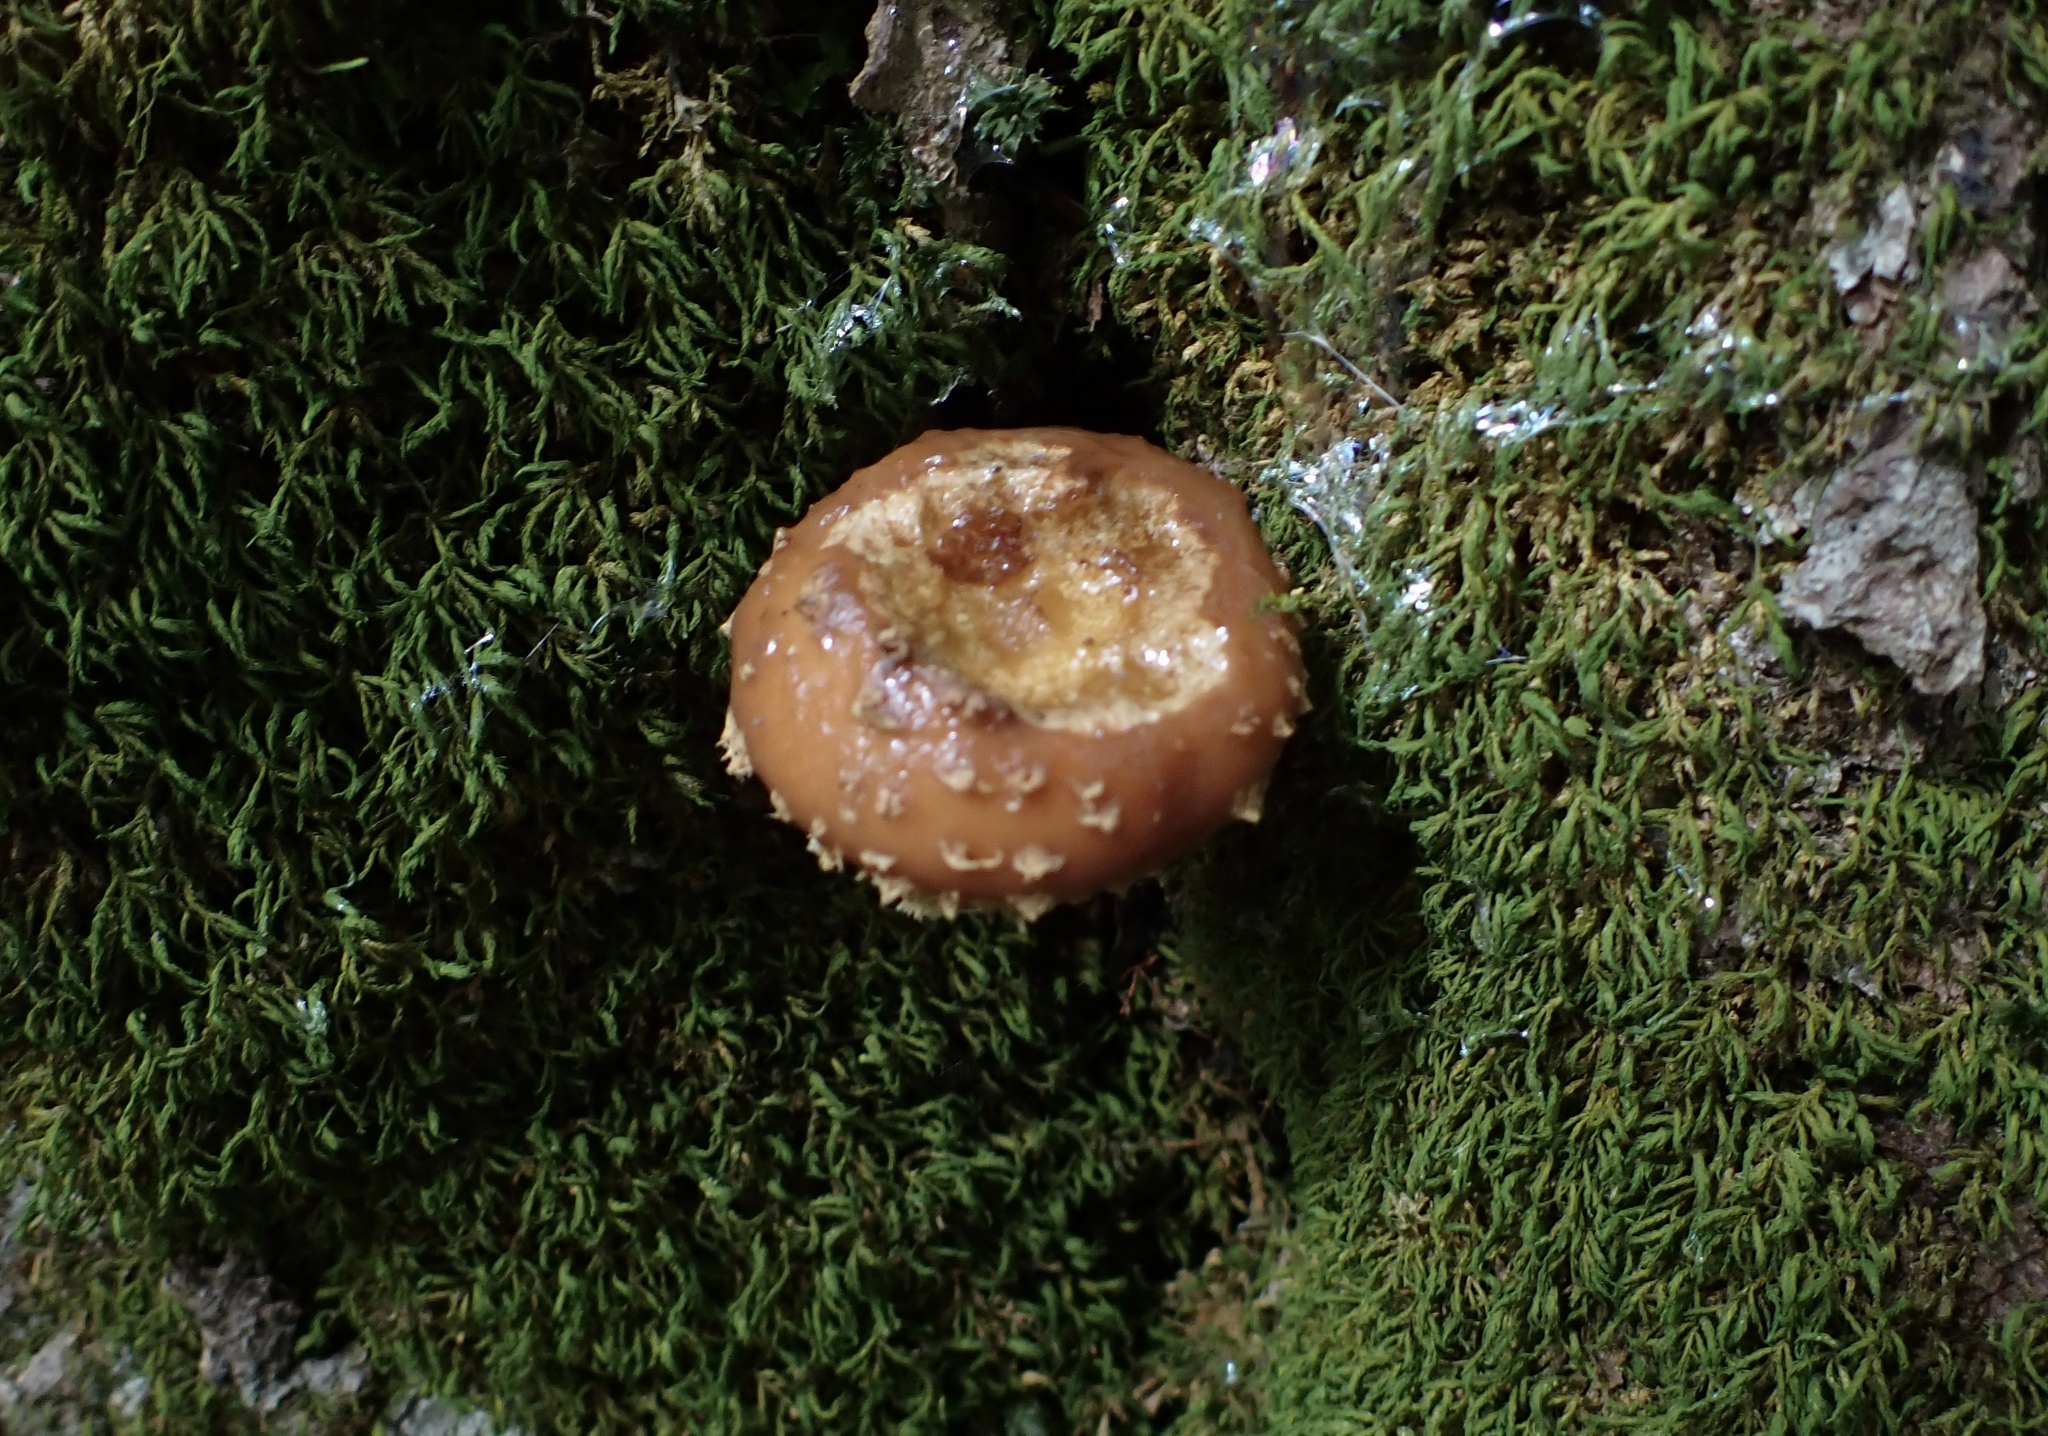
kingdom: Fungi
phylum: Basidiomycota
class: Agaricomycetes
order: Agaricales
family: Tubariaceae
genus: Hemistropharia
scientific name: Hemistropharia albocrenulata
